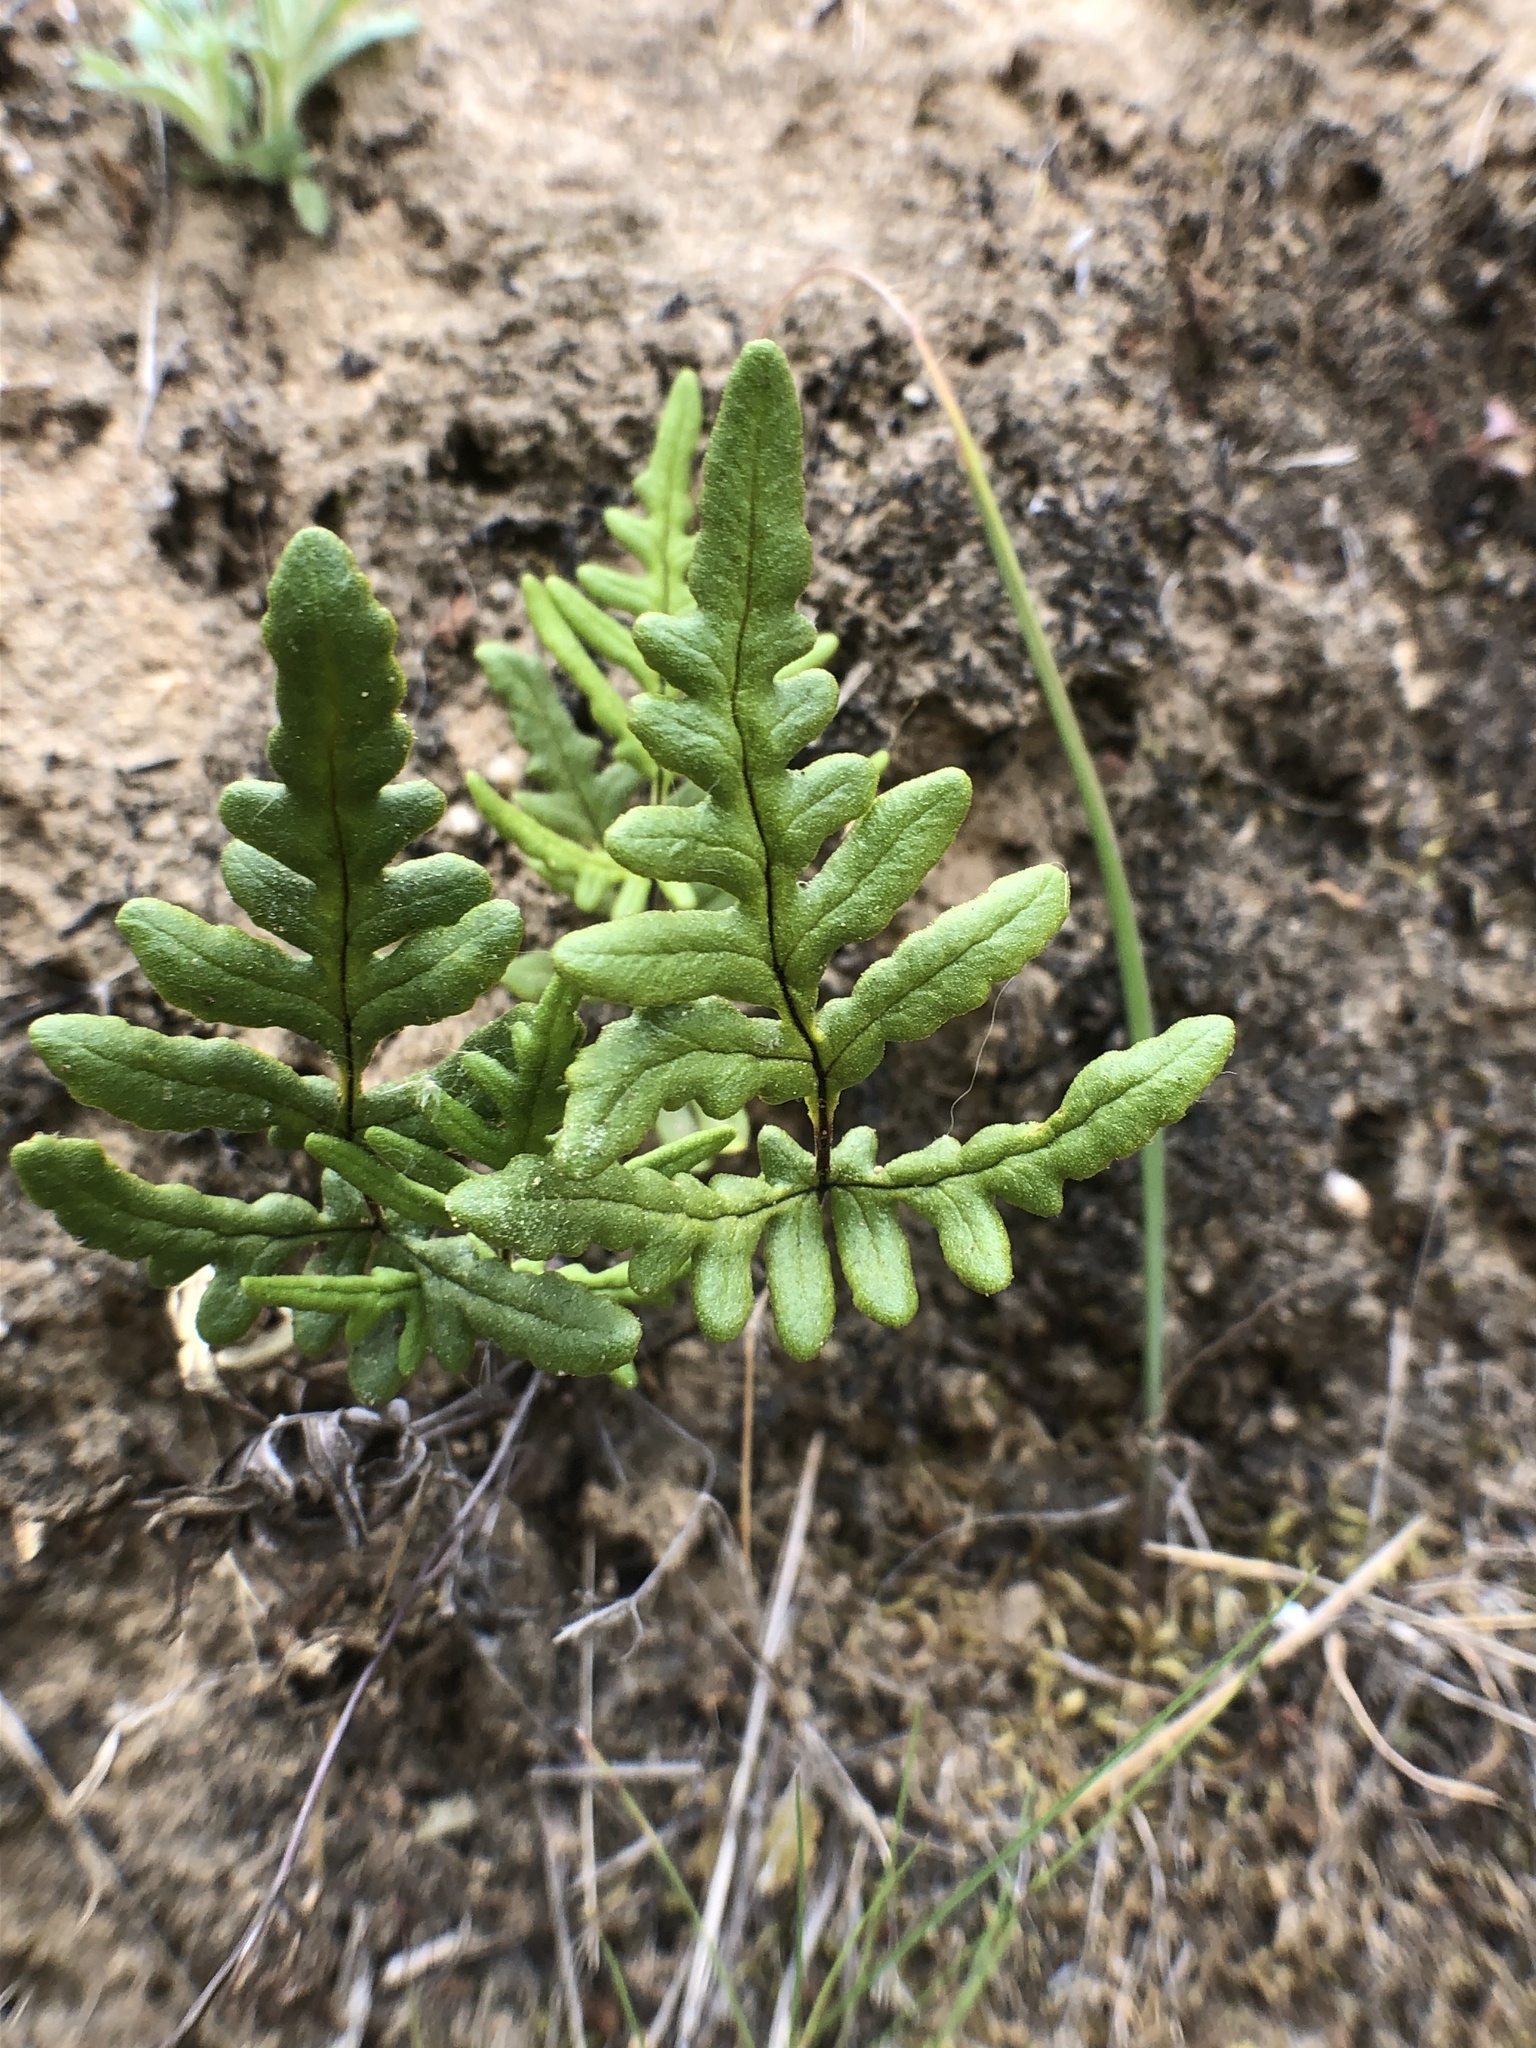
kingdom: Plantae
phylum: Tracheophyta
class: Polypodiopsida
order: Polypodiales
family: Pteridaceae
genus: Pentagramma
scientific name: Pentagramma viscosa
